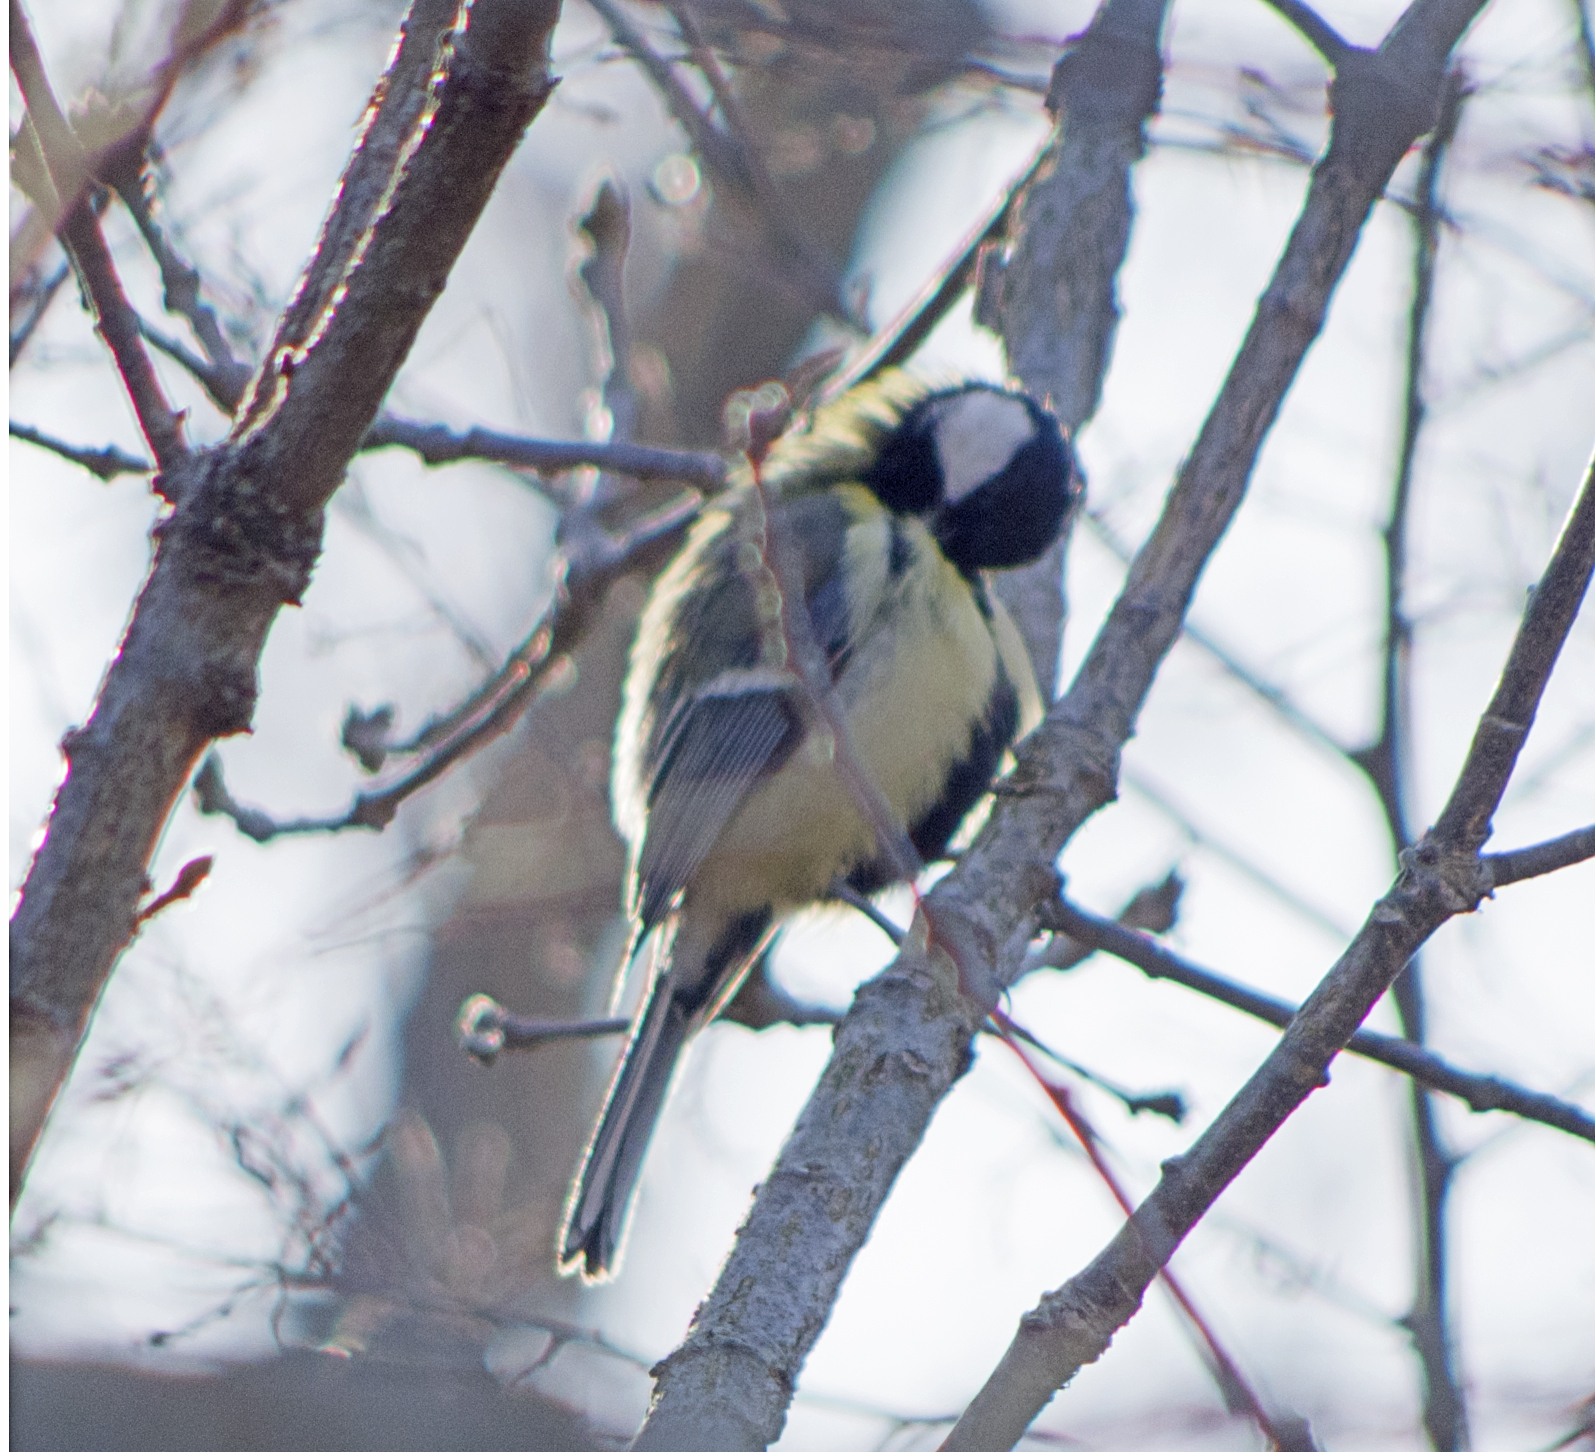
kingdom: Animalia
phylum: Chordata
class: Aves
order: Passeriformes
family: Paridae
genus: Parus
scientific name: Parus major
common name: Great tit
